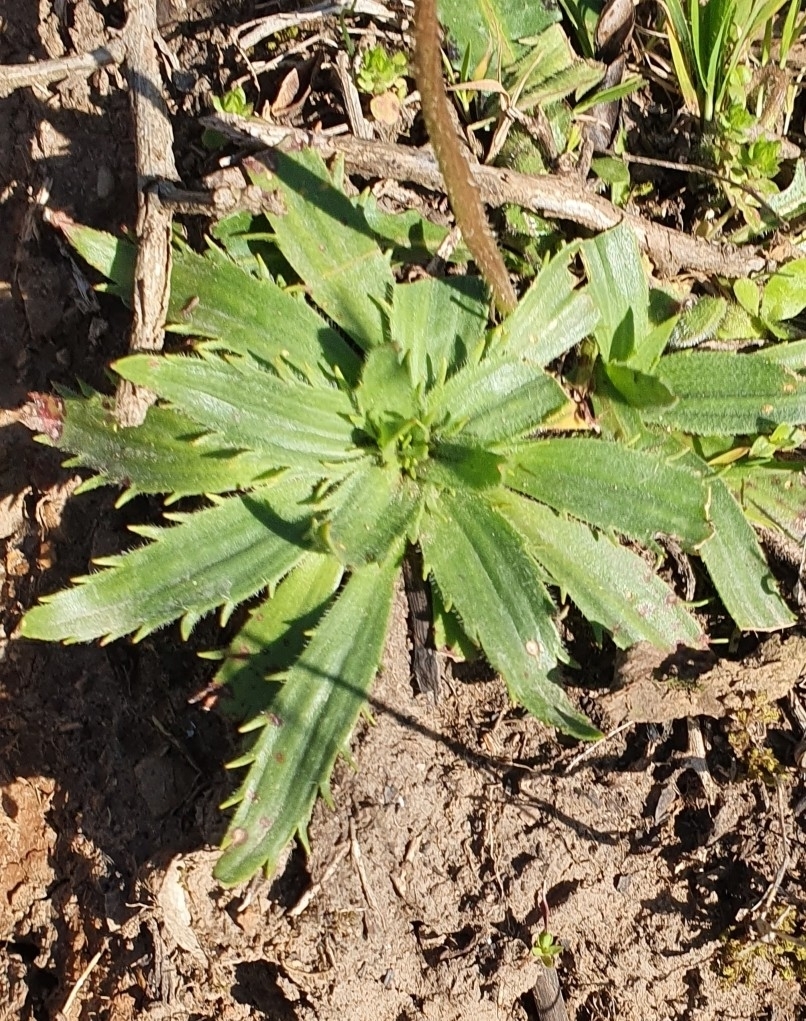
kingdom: Plantae
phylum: Tracheophyta
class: Magnoliopsida
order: Lamiales
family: Plantaginaceae
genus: Plantago
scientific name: Plantago serraria
